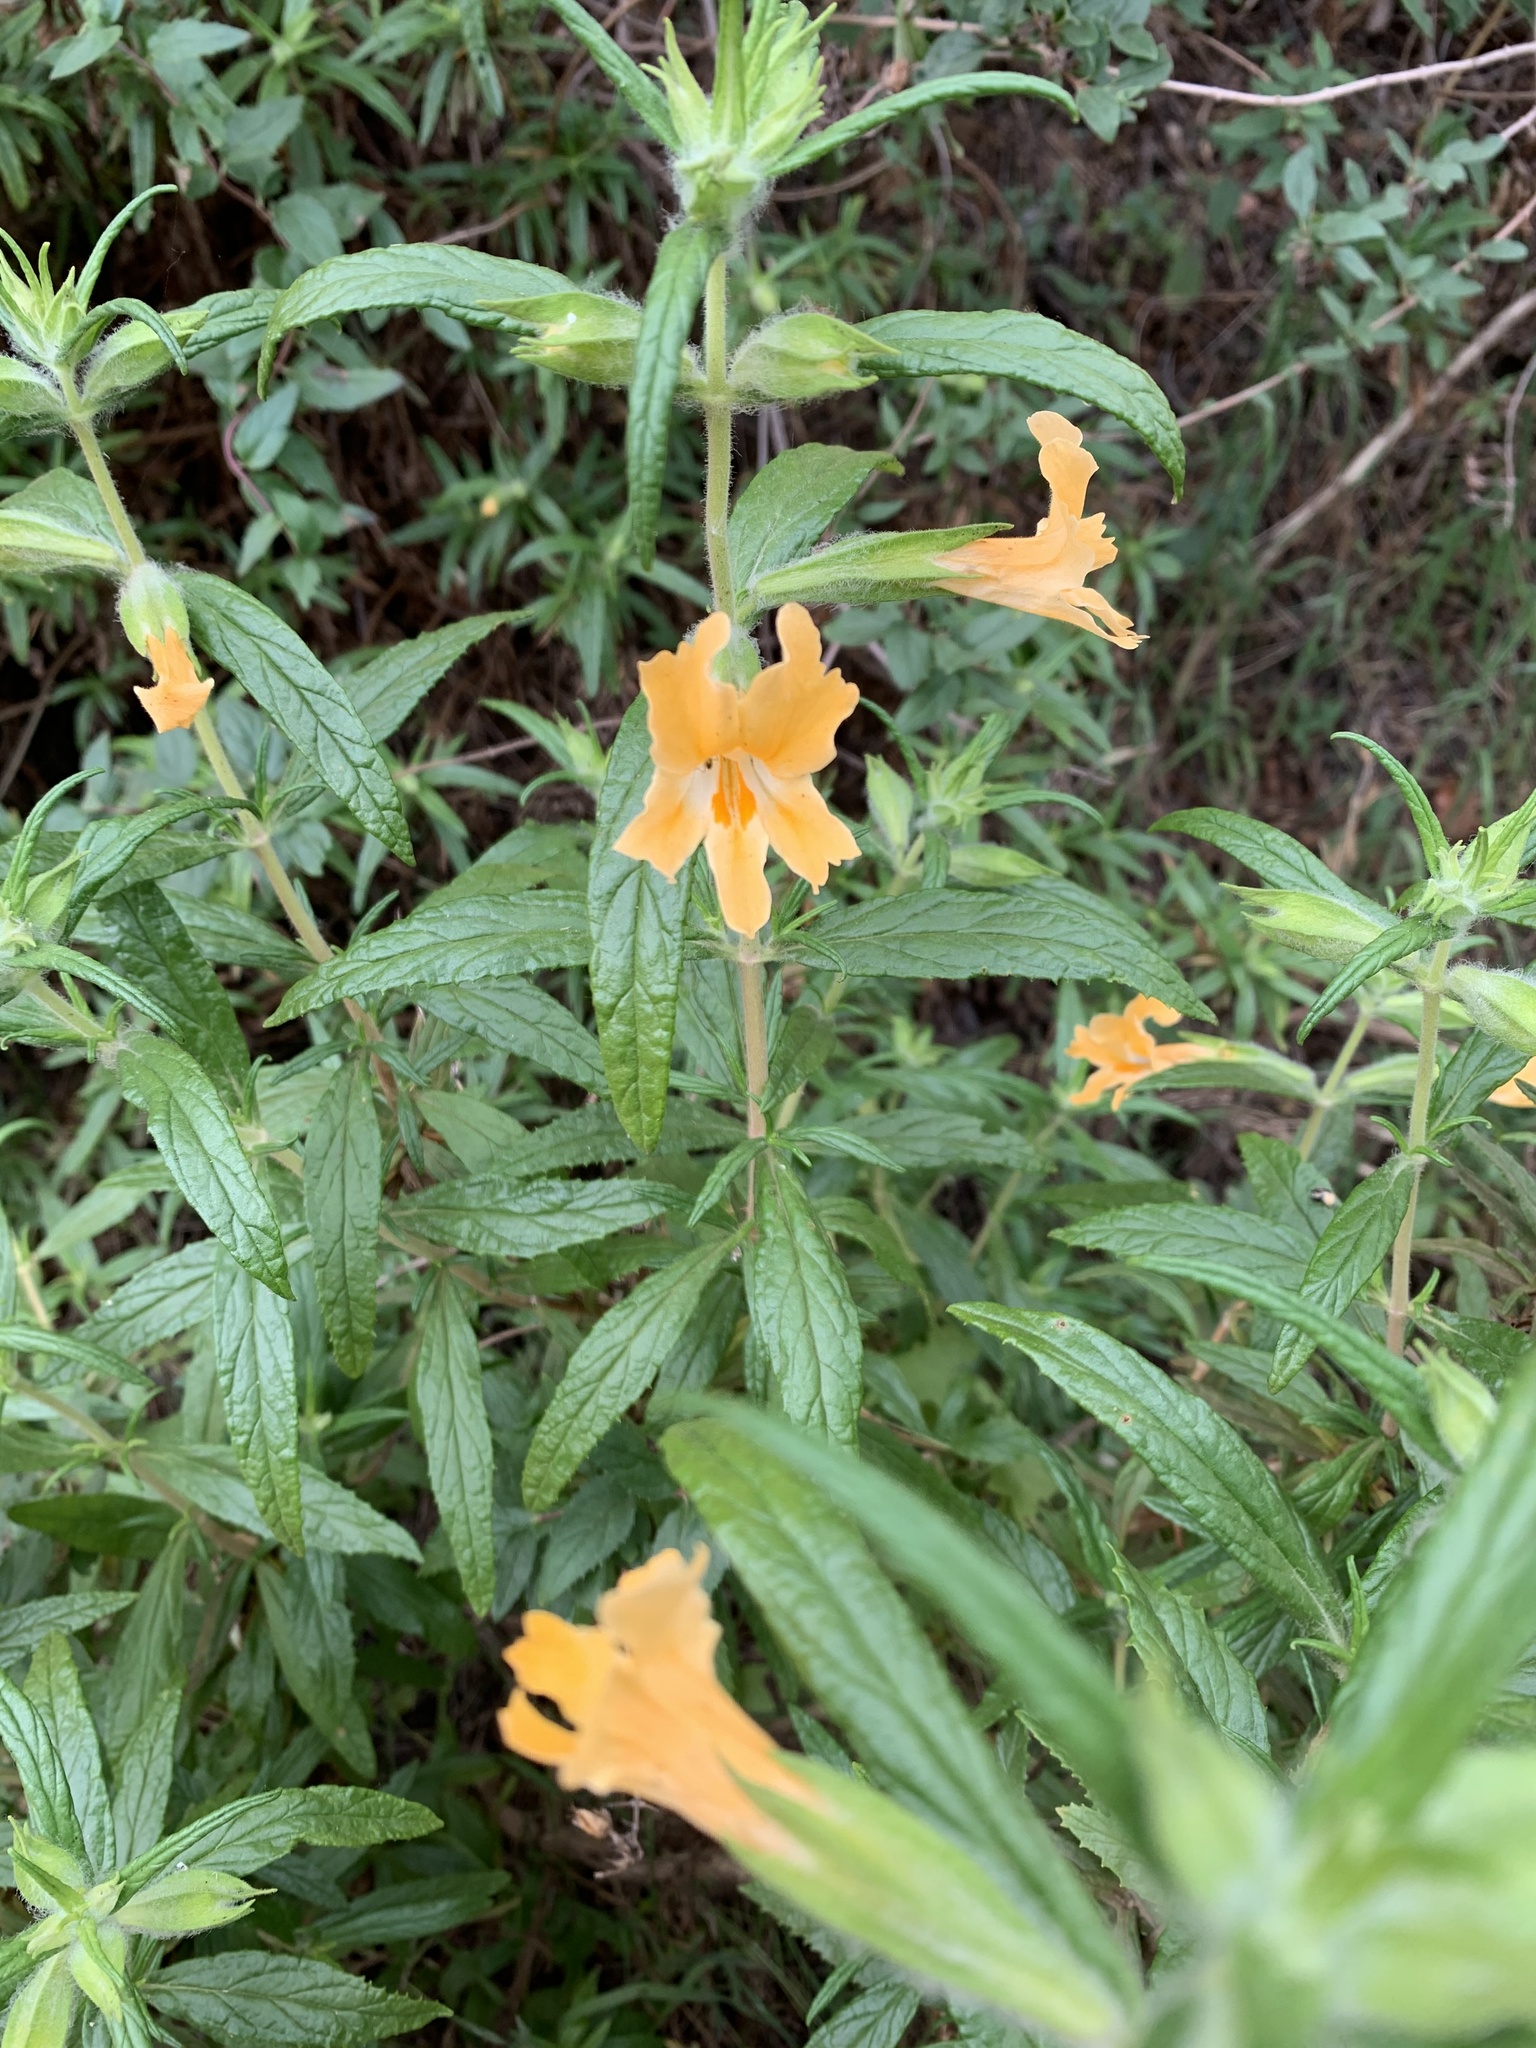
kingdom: Plantae
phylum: Tracheophyta
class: Magnoliopsida
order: Lamiales
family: Phrymaceae
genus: Diplacus
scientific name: Diplacus longiflorus
